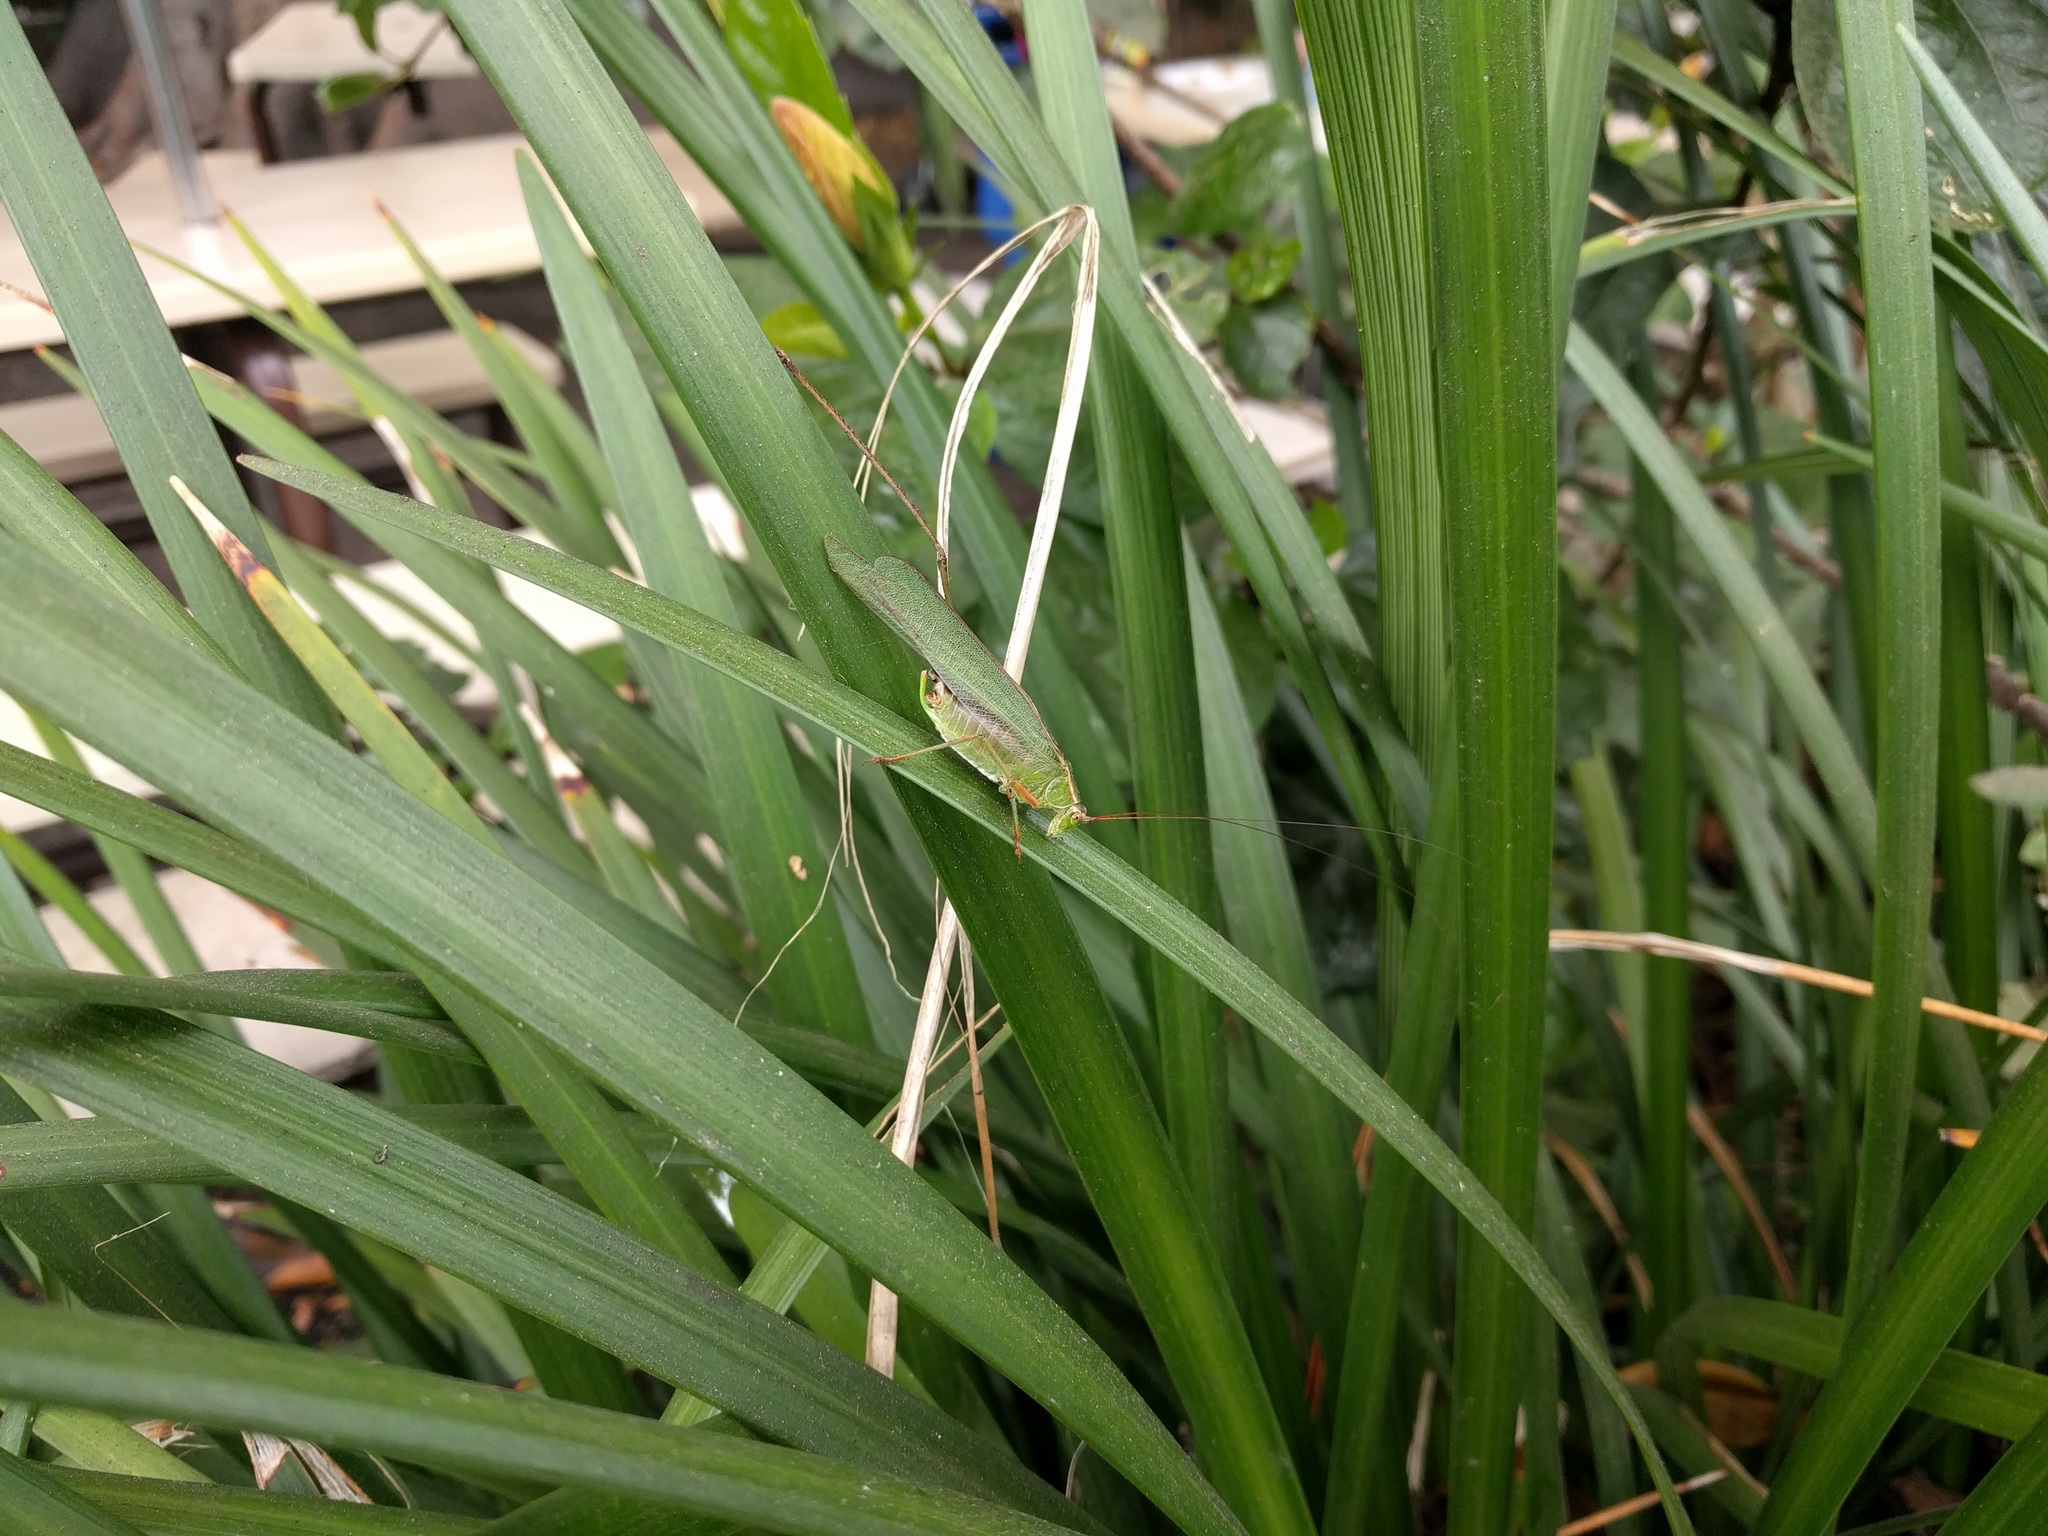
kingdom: Animalia
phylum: Arthropoda
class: Insecta
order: Orthoptera
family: Tettigoniidae
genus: Scudderia
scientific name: Scudderia furcata
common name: Fork-tailed bush katydid
